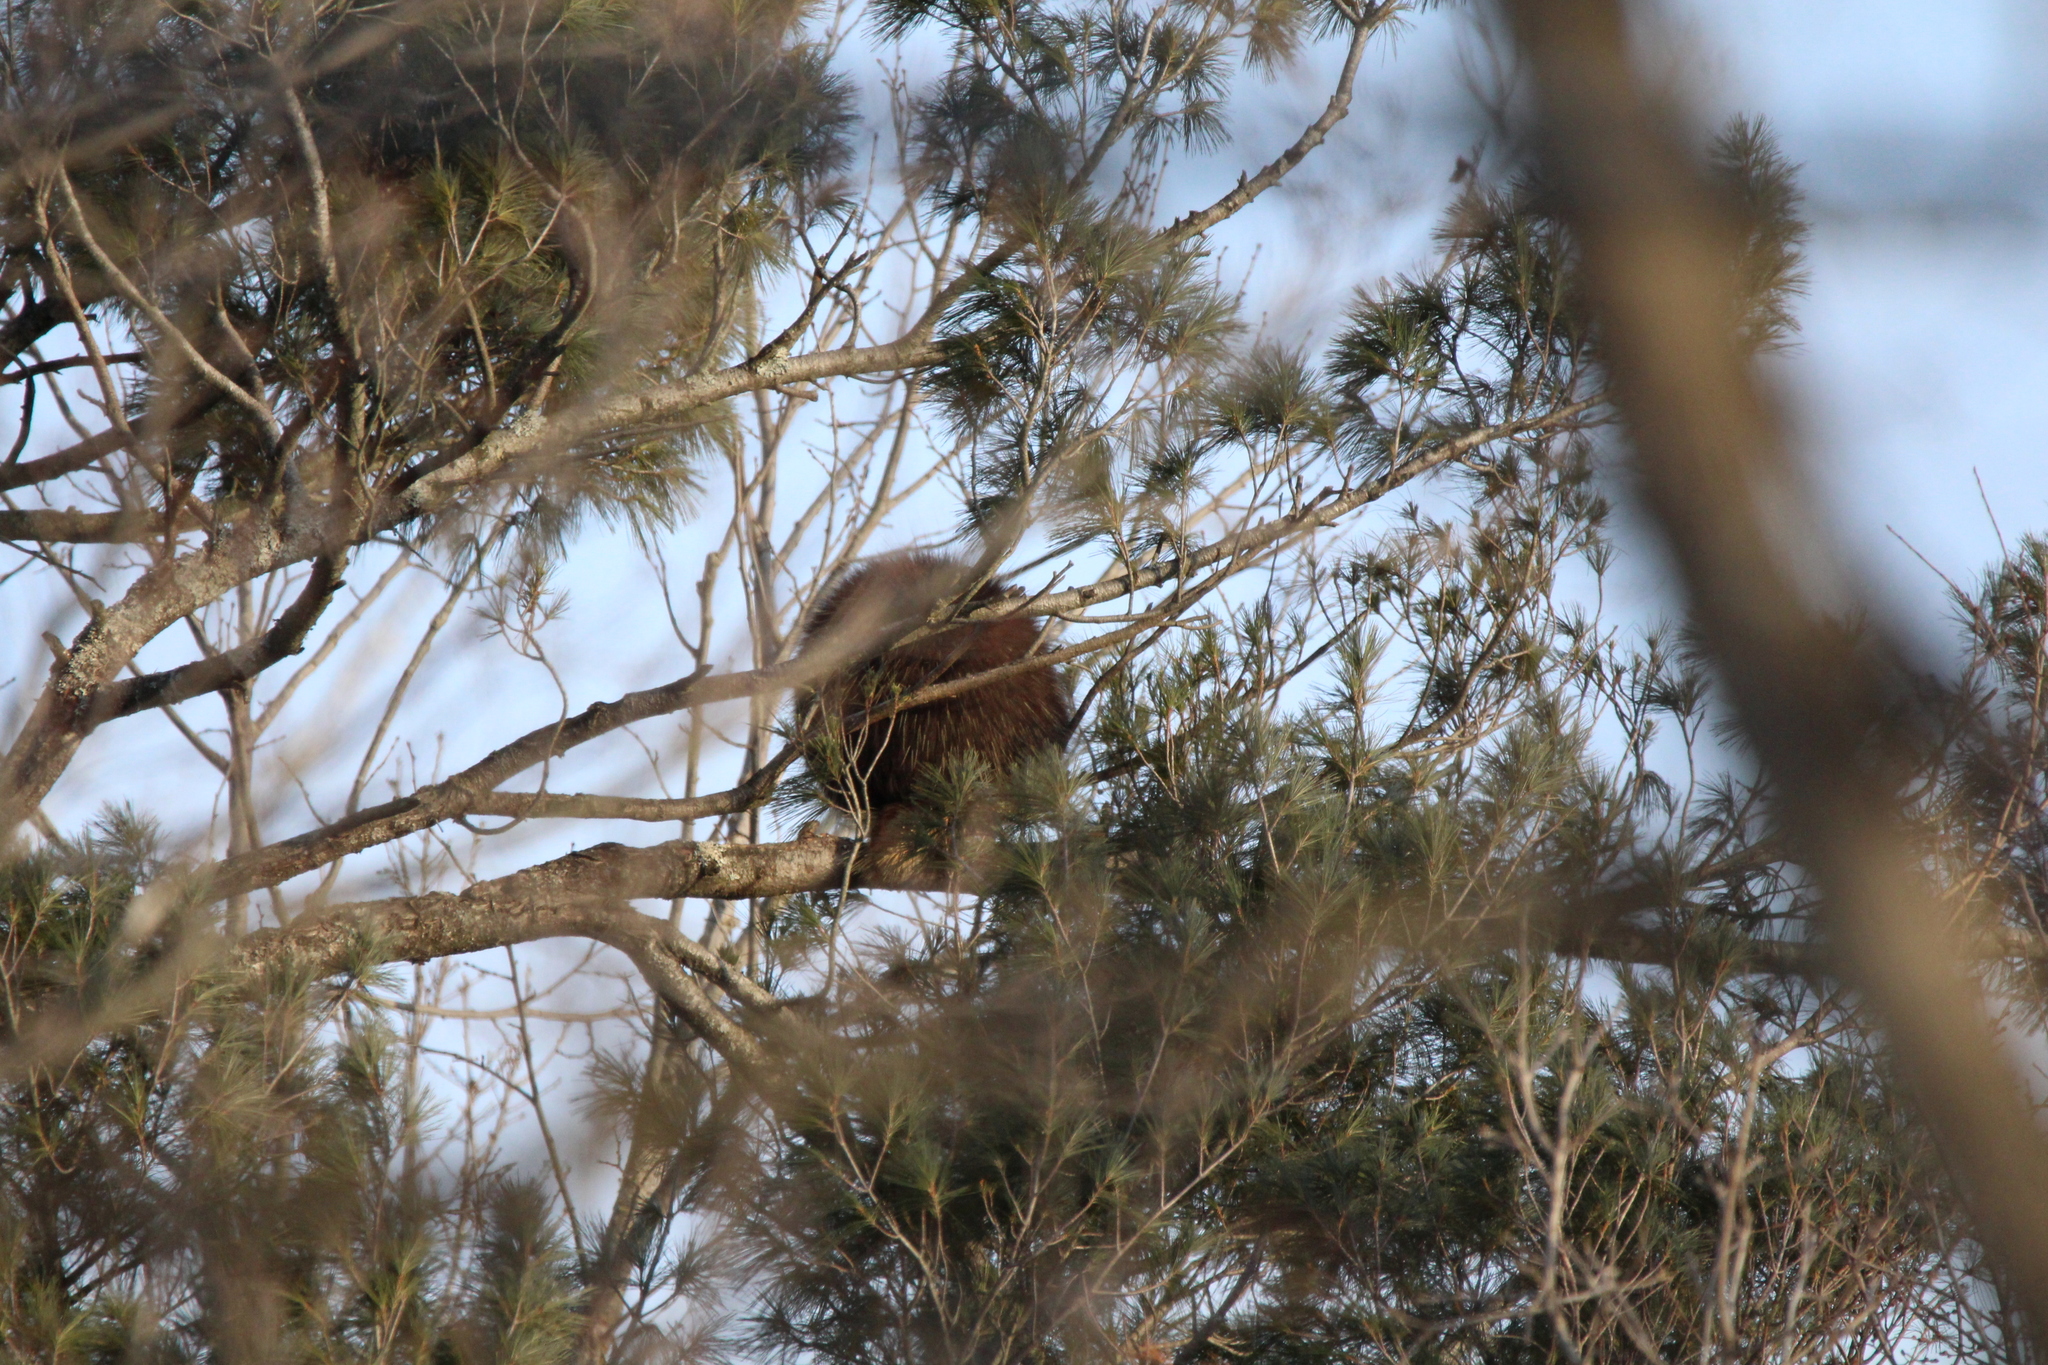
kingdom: Animalia
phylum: Chordata
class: Mammalia
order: Rodentia
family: Erethizontidae
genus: Erethizon
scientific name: Erethizon dorsatus
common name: North american porcupine
